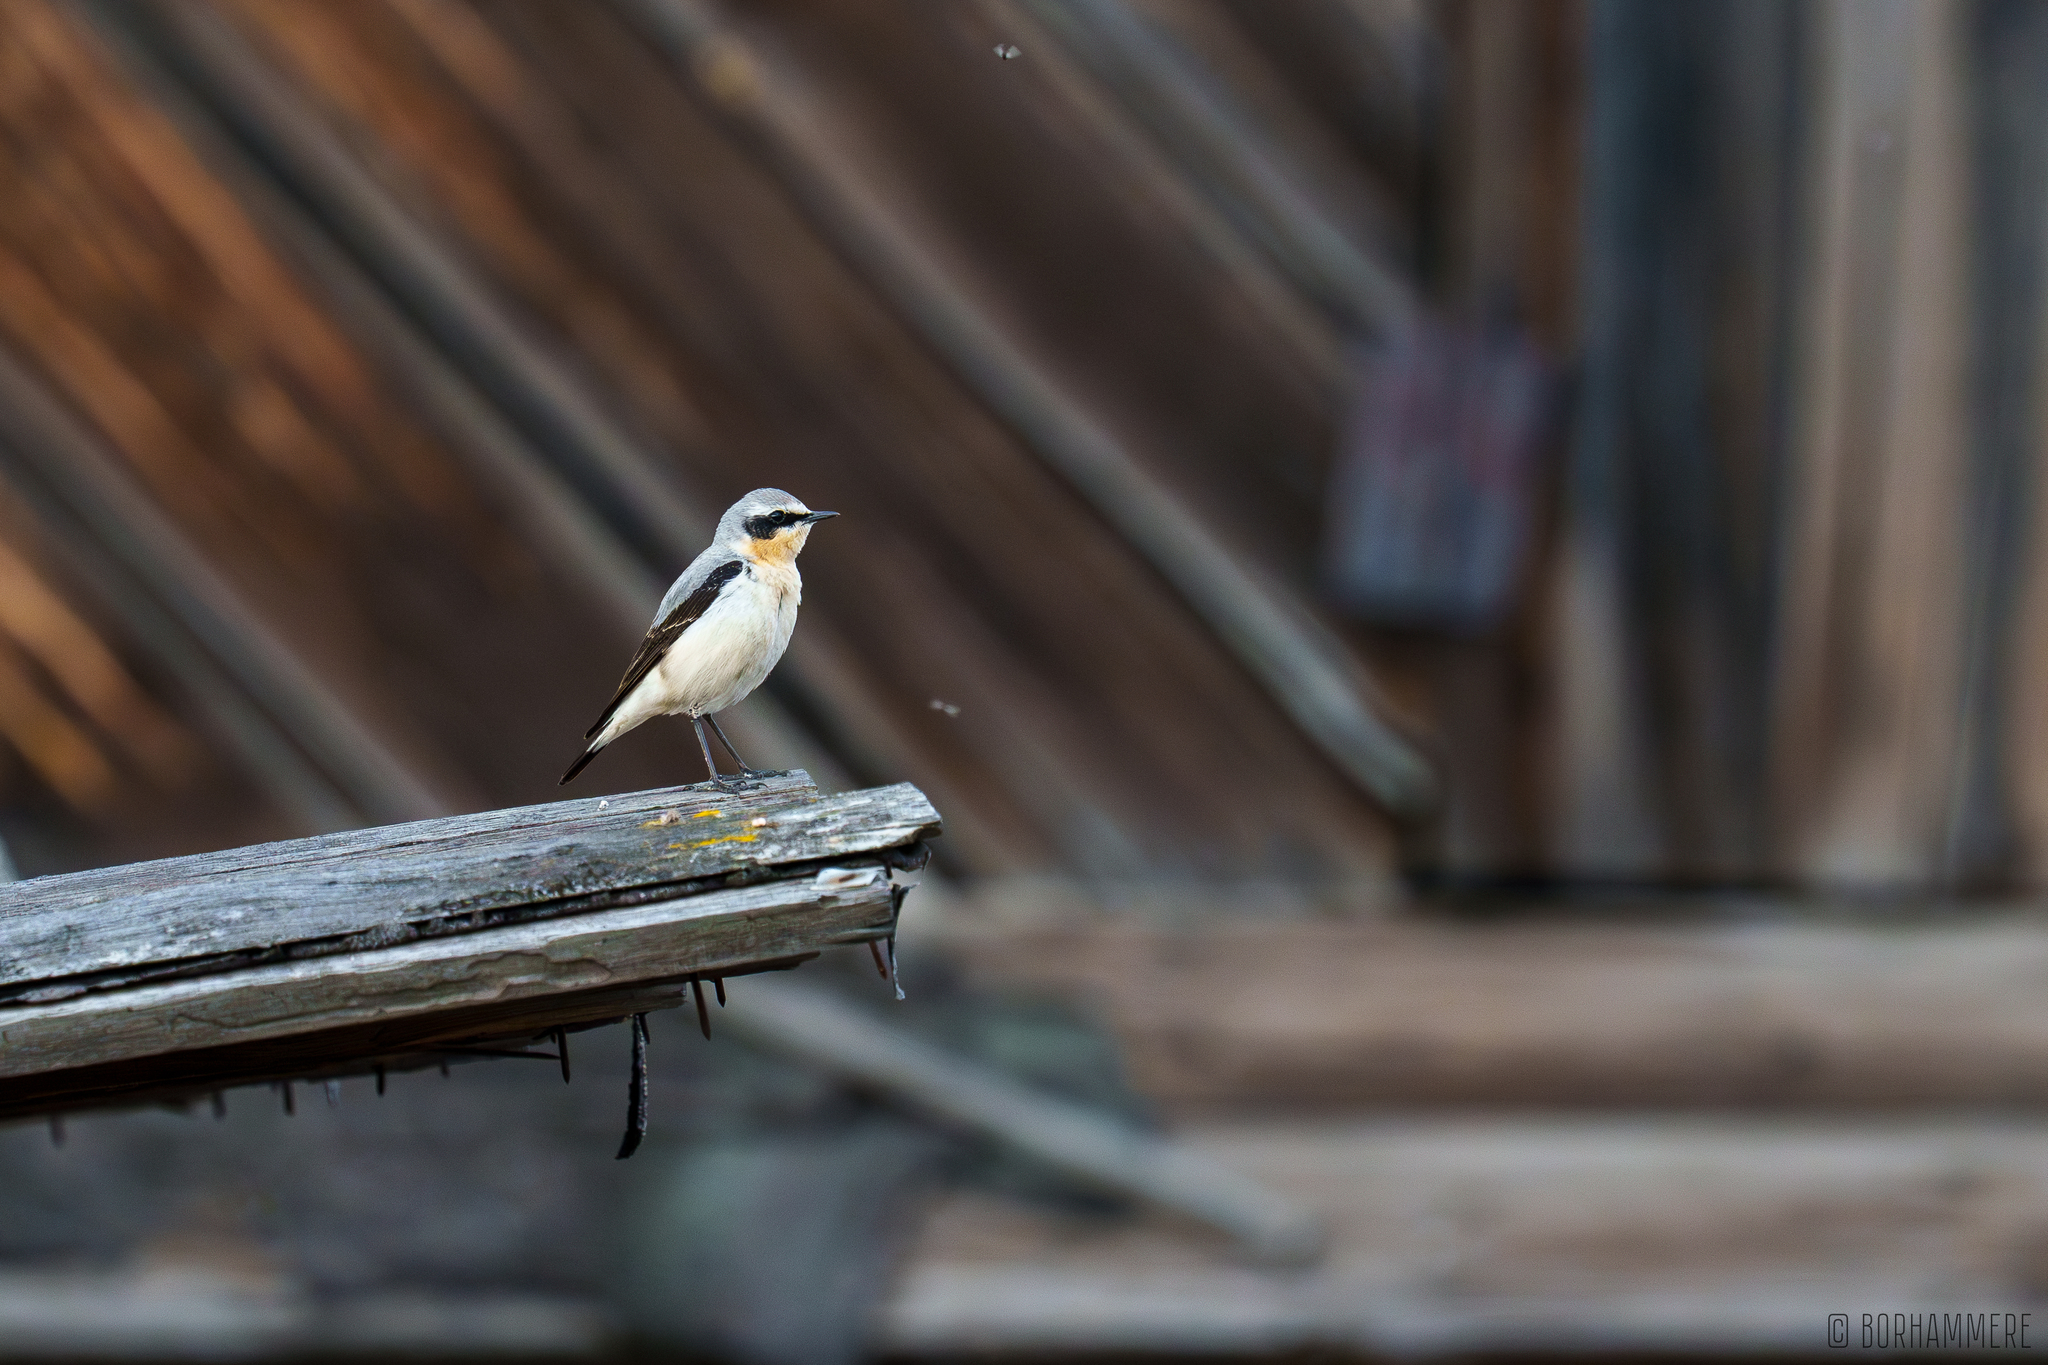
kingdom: Animalia
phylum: Chordata
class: Aves
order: Passeriformes
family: Muscicapidae
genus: Oenanthe
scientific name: Oenanthe oenanthe
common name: Northern wheatear
